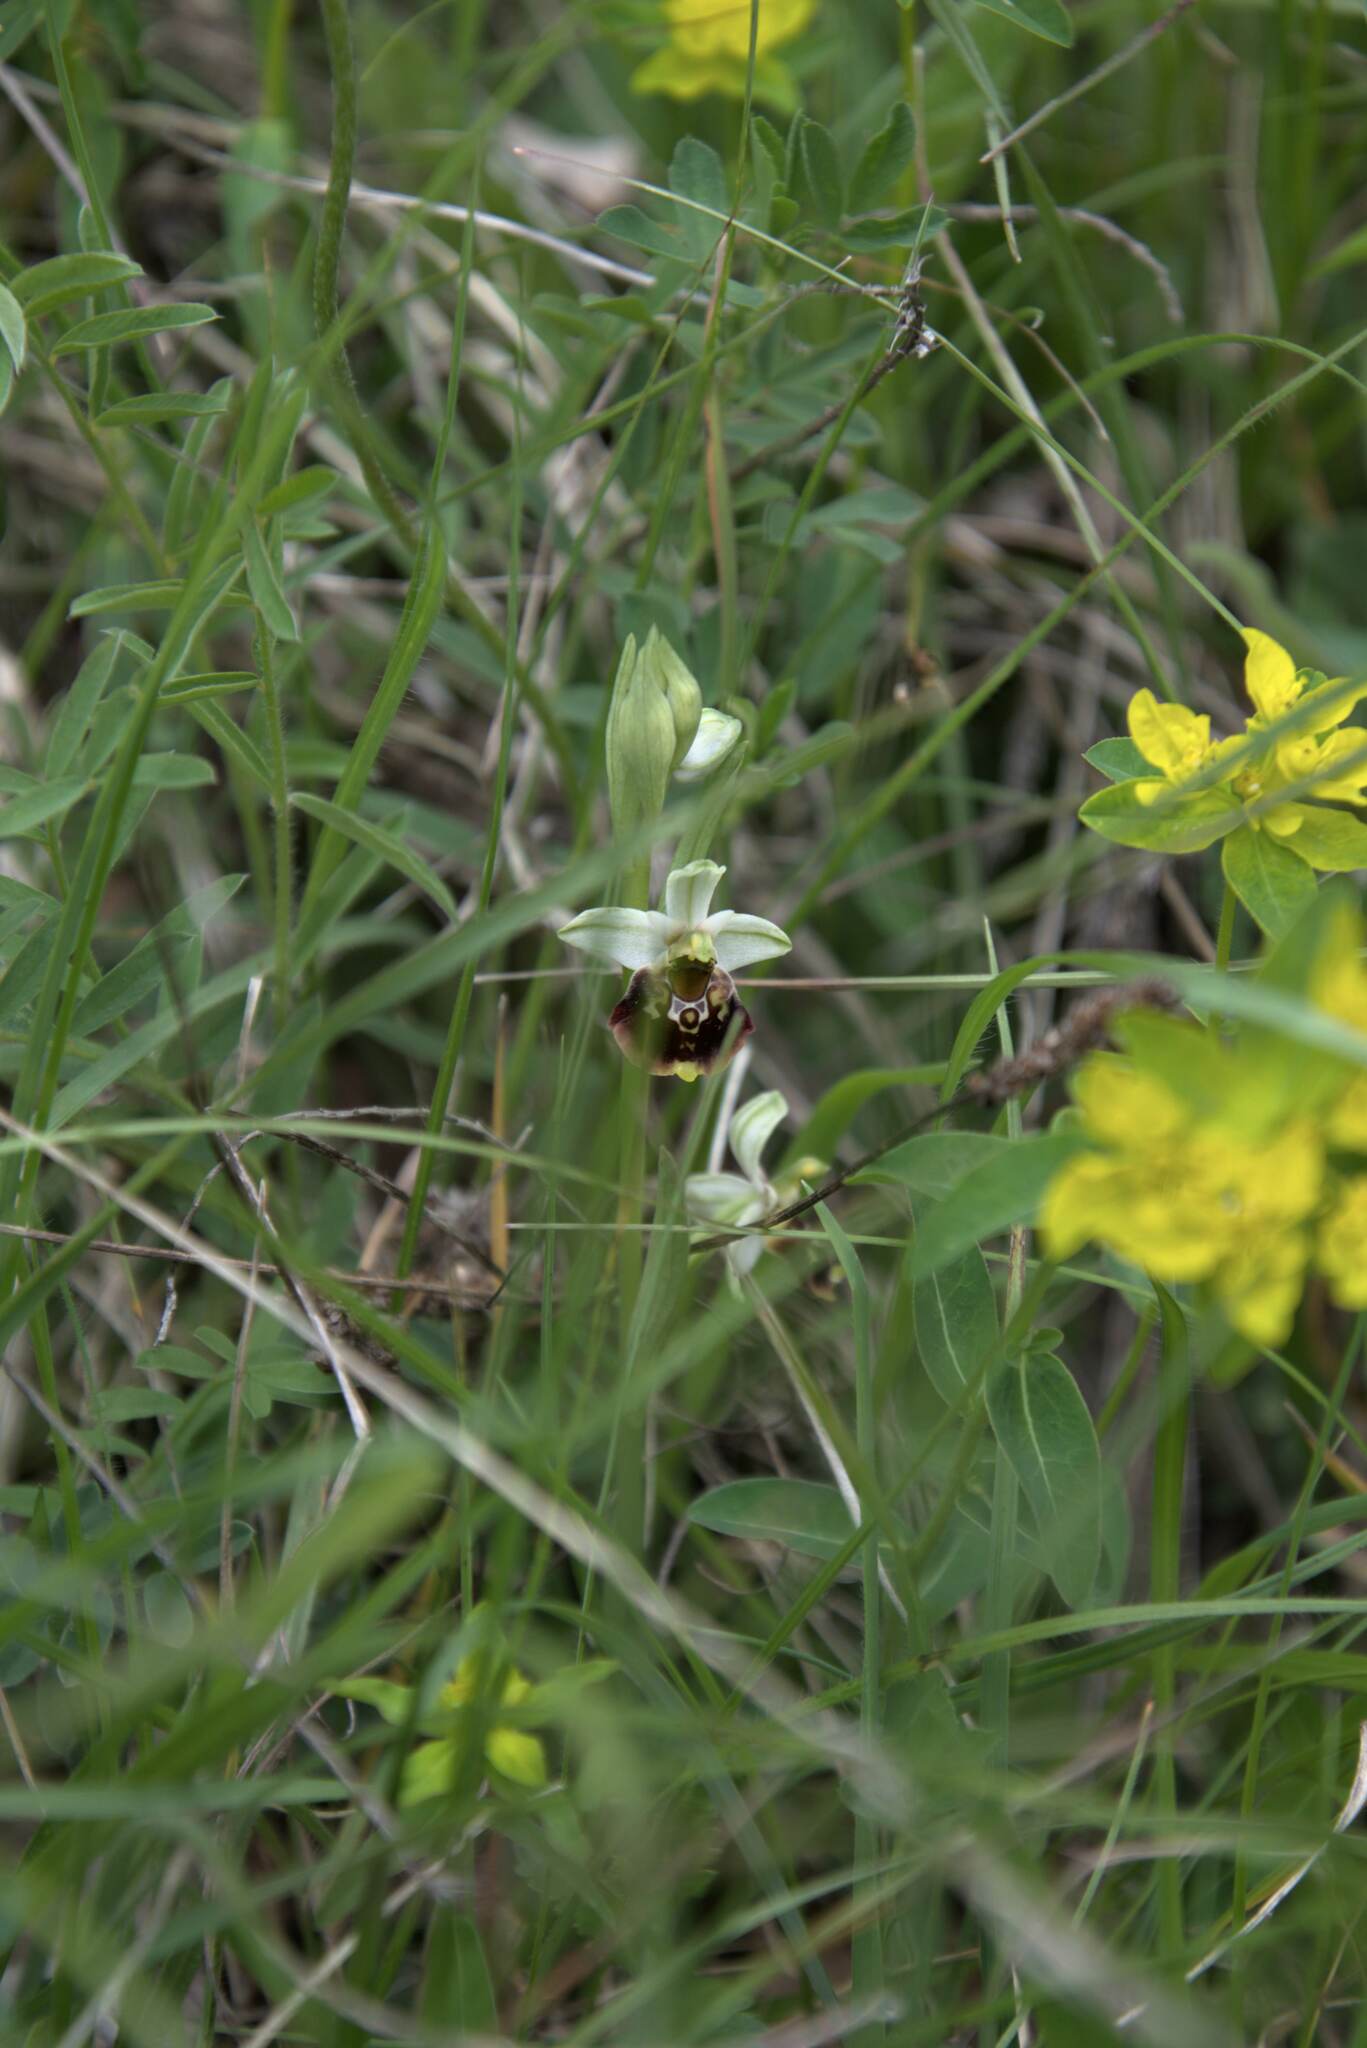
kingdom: Plantae
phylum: Tracheophyta
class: Liliopsida
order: Asparagales
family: Orchidaceae
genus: Ophrys
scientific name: Ophrys holosericea
